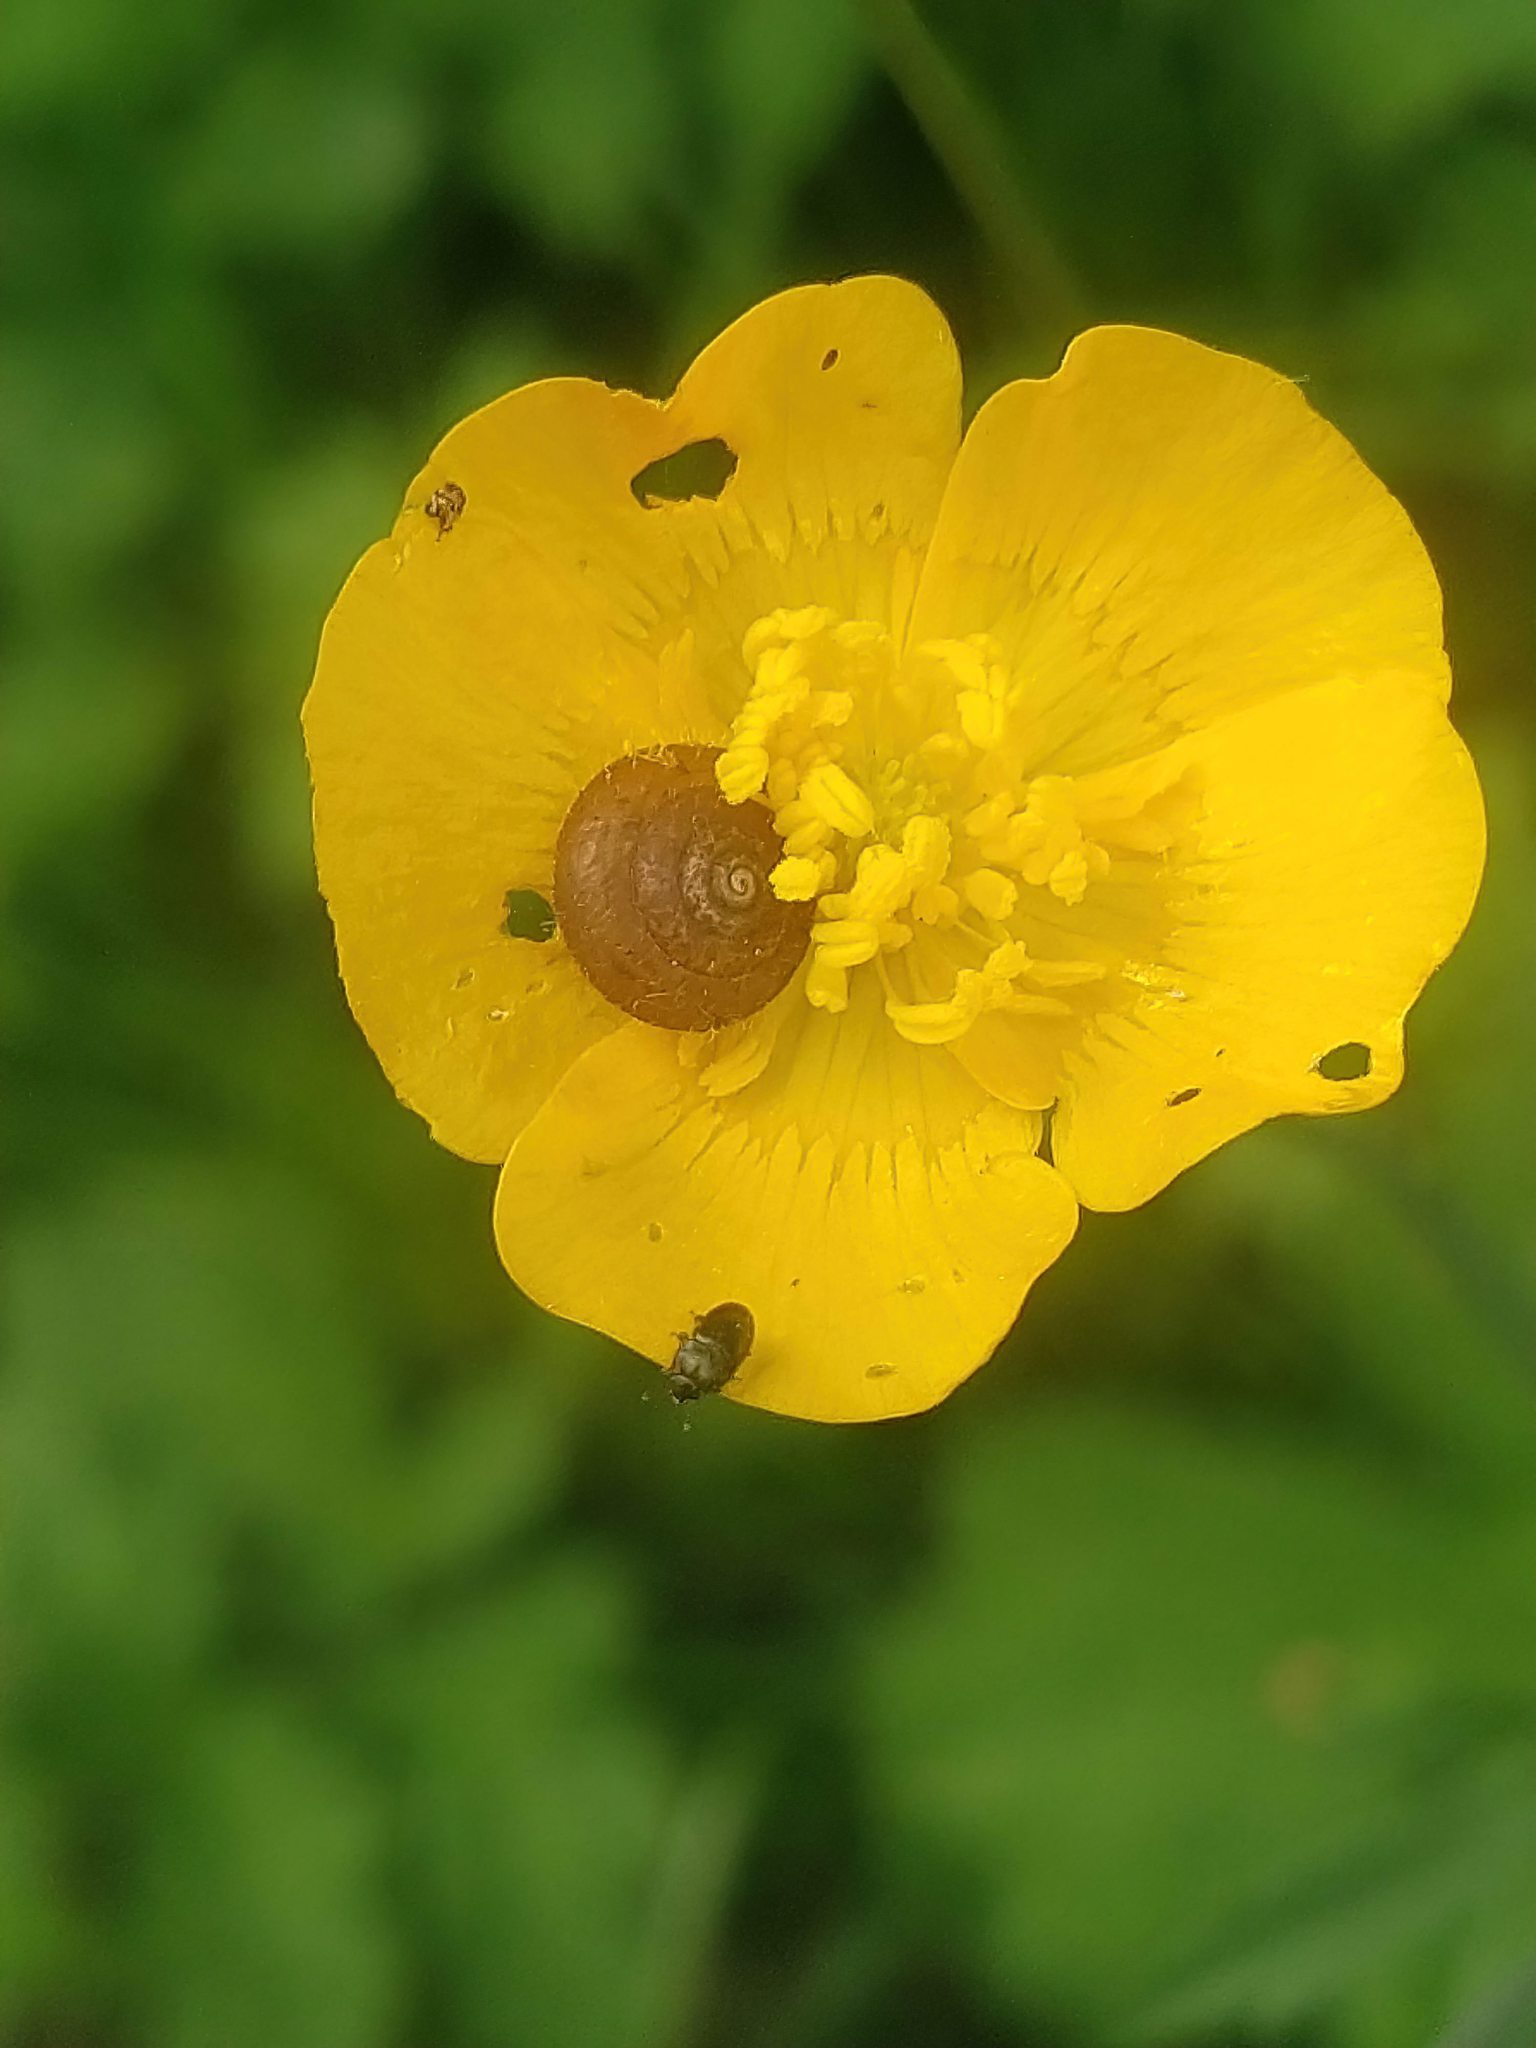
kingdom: Animalia
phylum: Mollusca
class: Gastropoda
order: Stylommatophora
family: Hygromiidae
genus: Trochulus
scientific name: Trochulus hispidus
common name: Hairy snail
